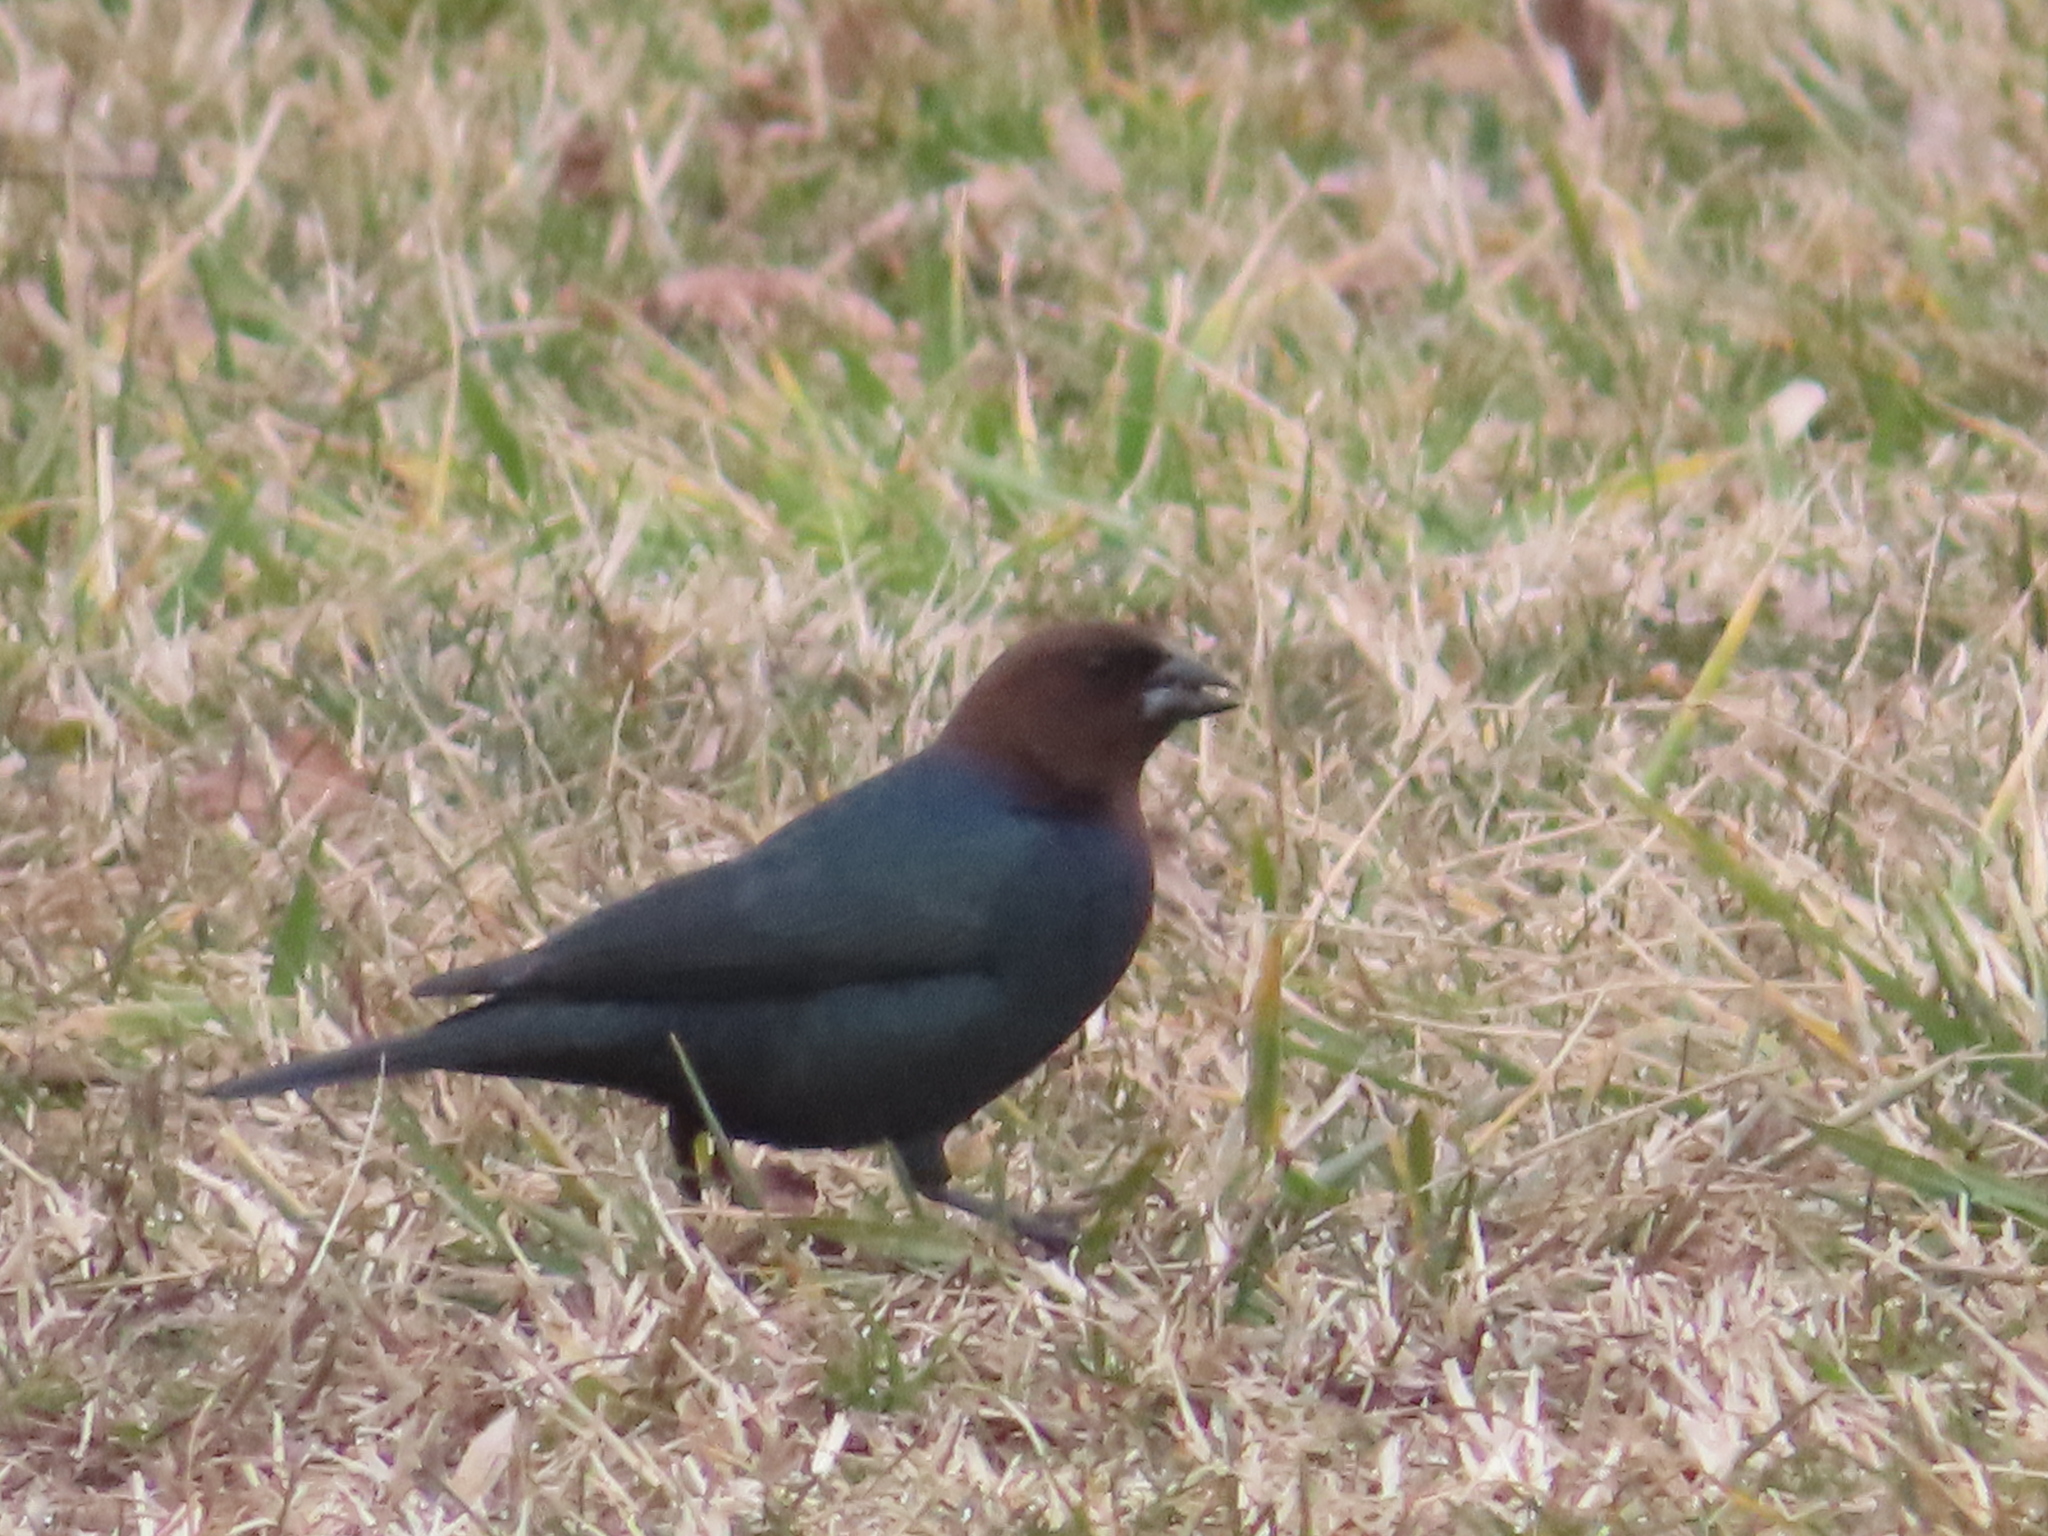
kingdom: Animalia
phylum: Chordata
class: Aves
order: Passeriformes
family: Icteridae
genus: Molothrus
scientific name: Molothrus ater
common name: Brown-headed cowbird
